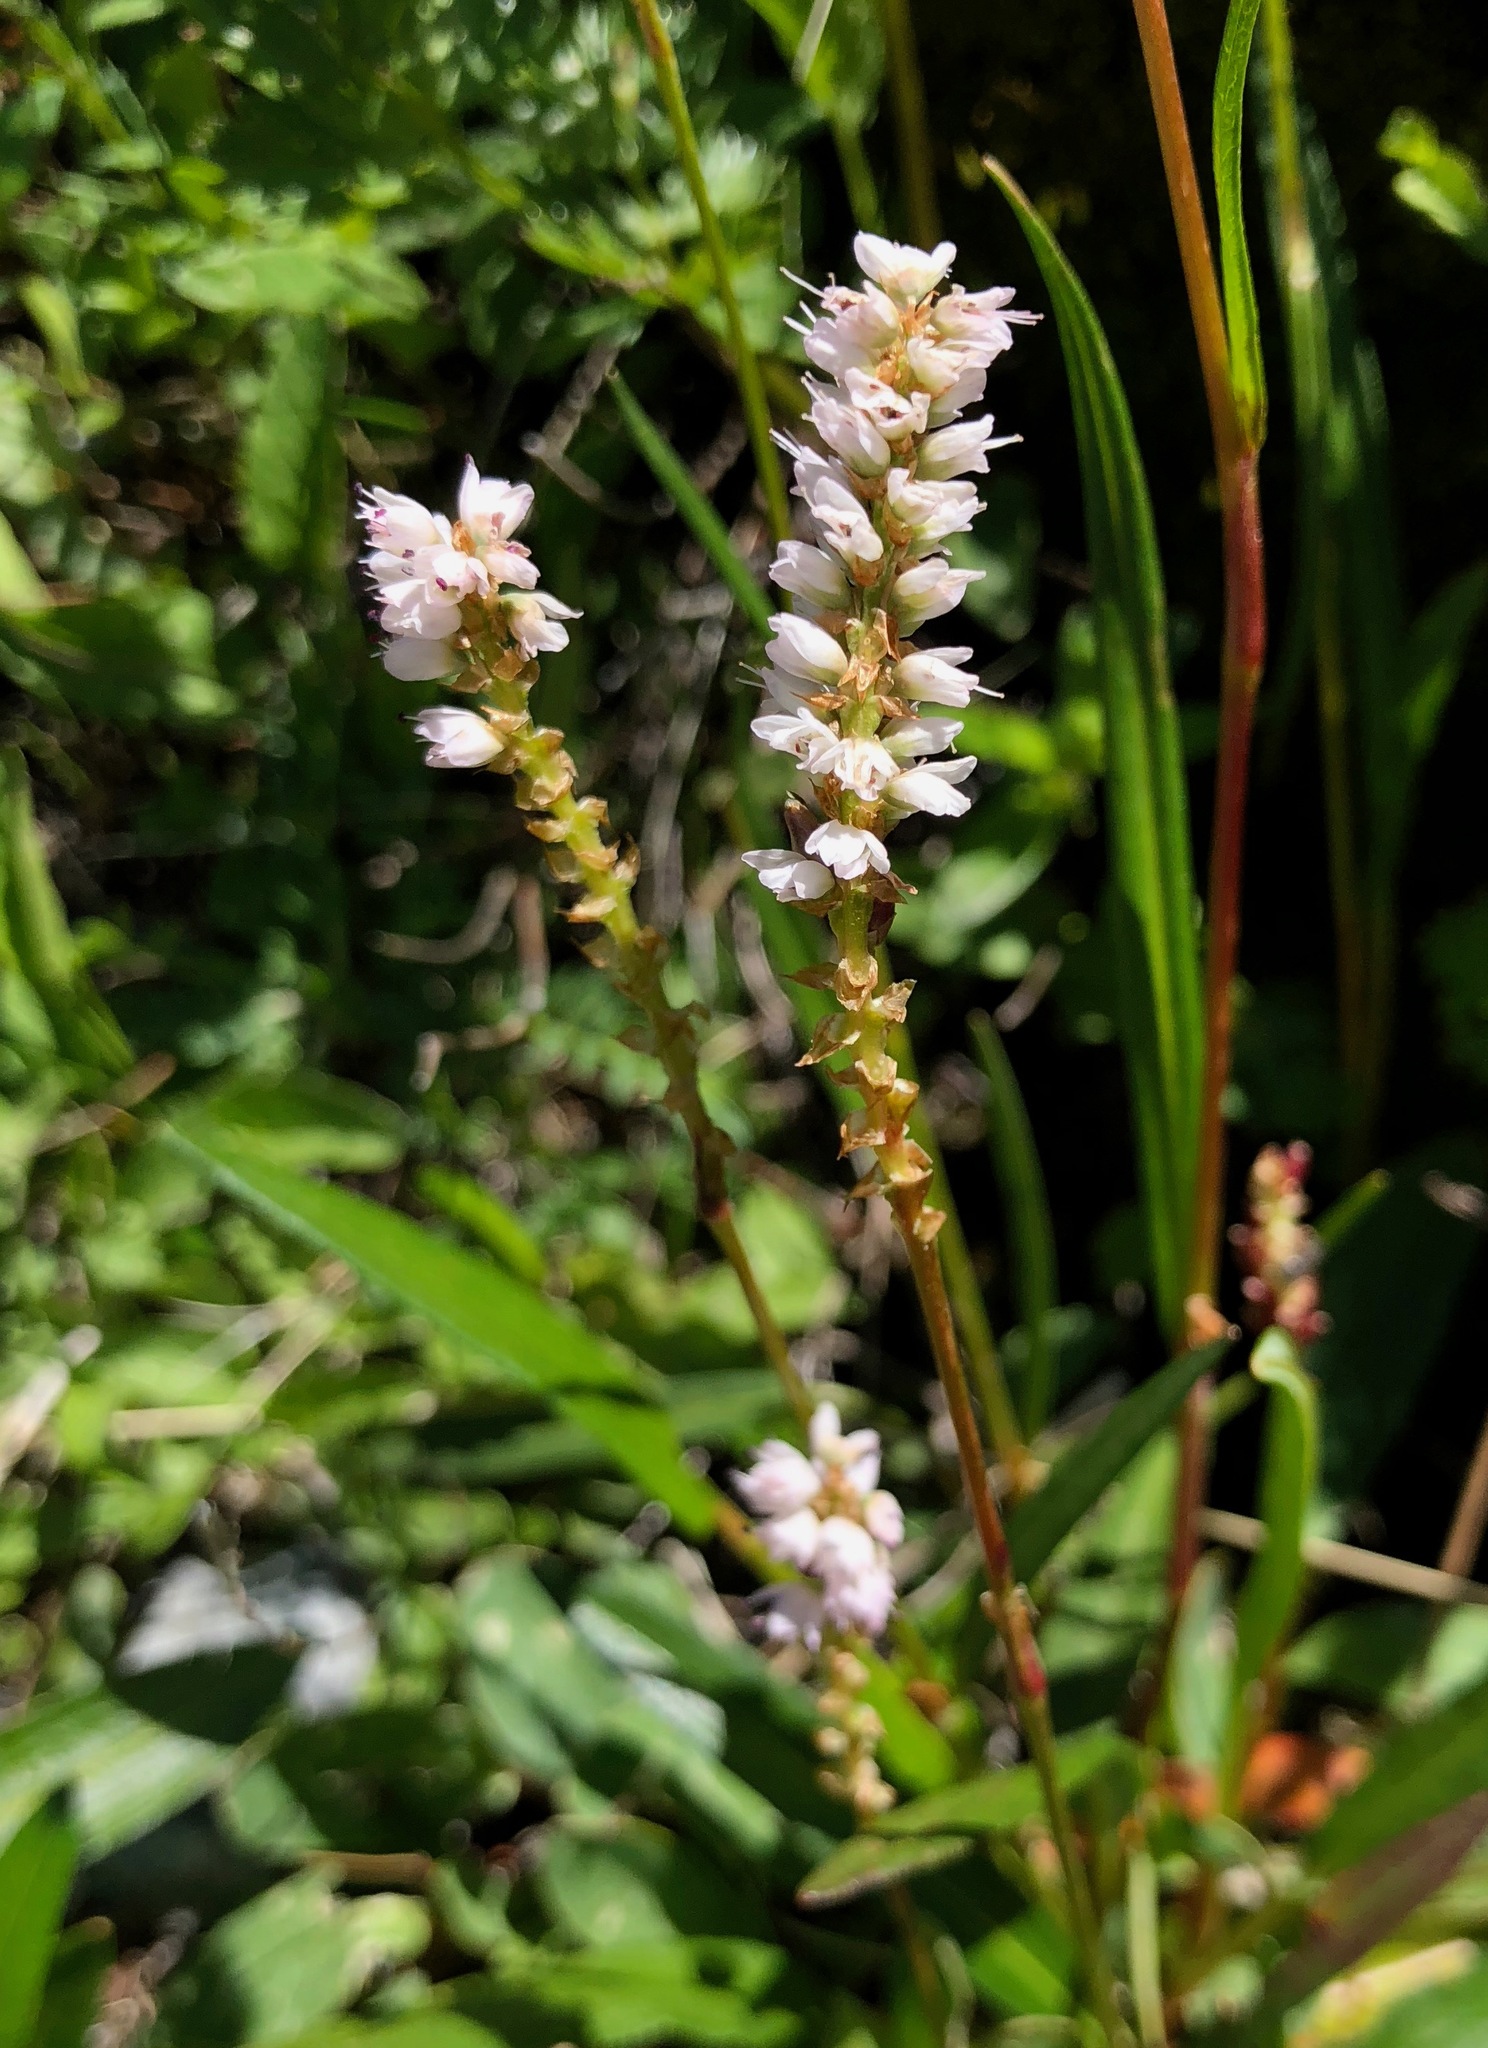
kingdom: Plantae
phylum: Tracheophyta
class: Magnoliopsida
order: Caryophyllales
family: Polygonaceae
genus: Bistorta
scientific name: Bistorta vivipara
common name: Alpine bistort
